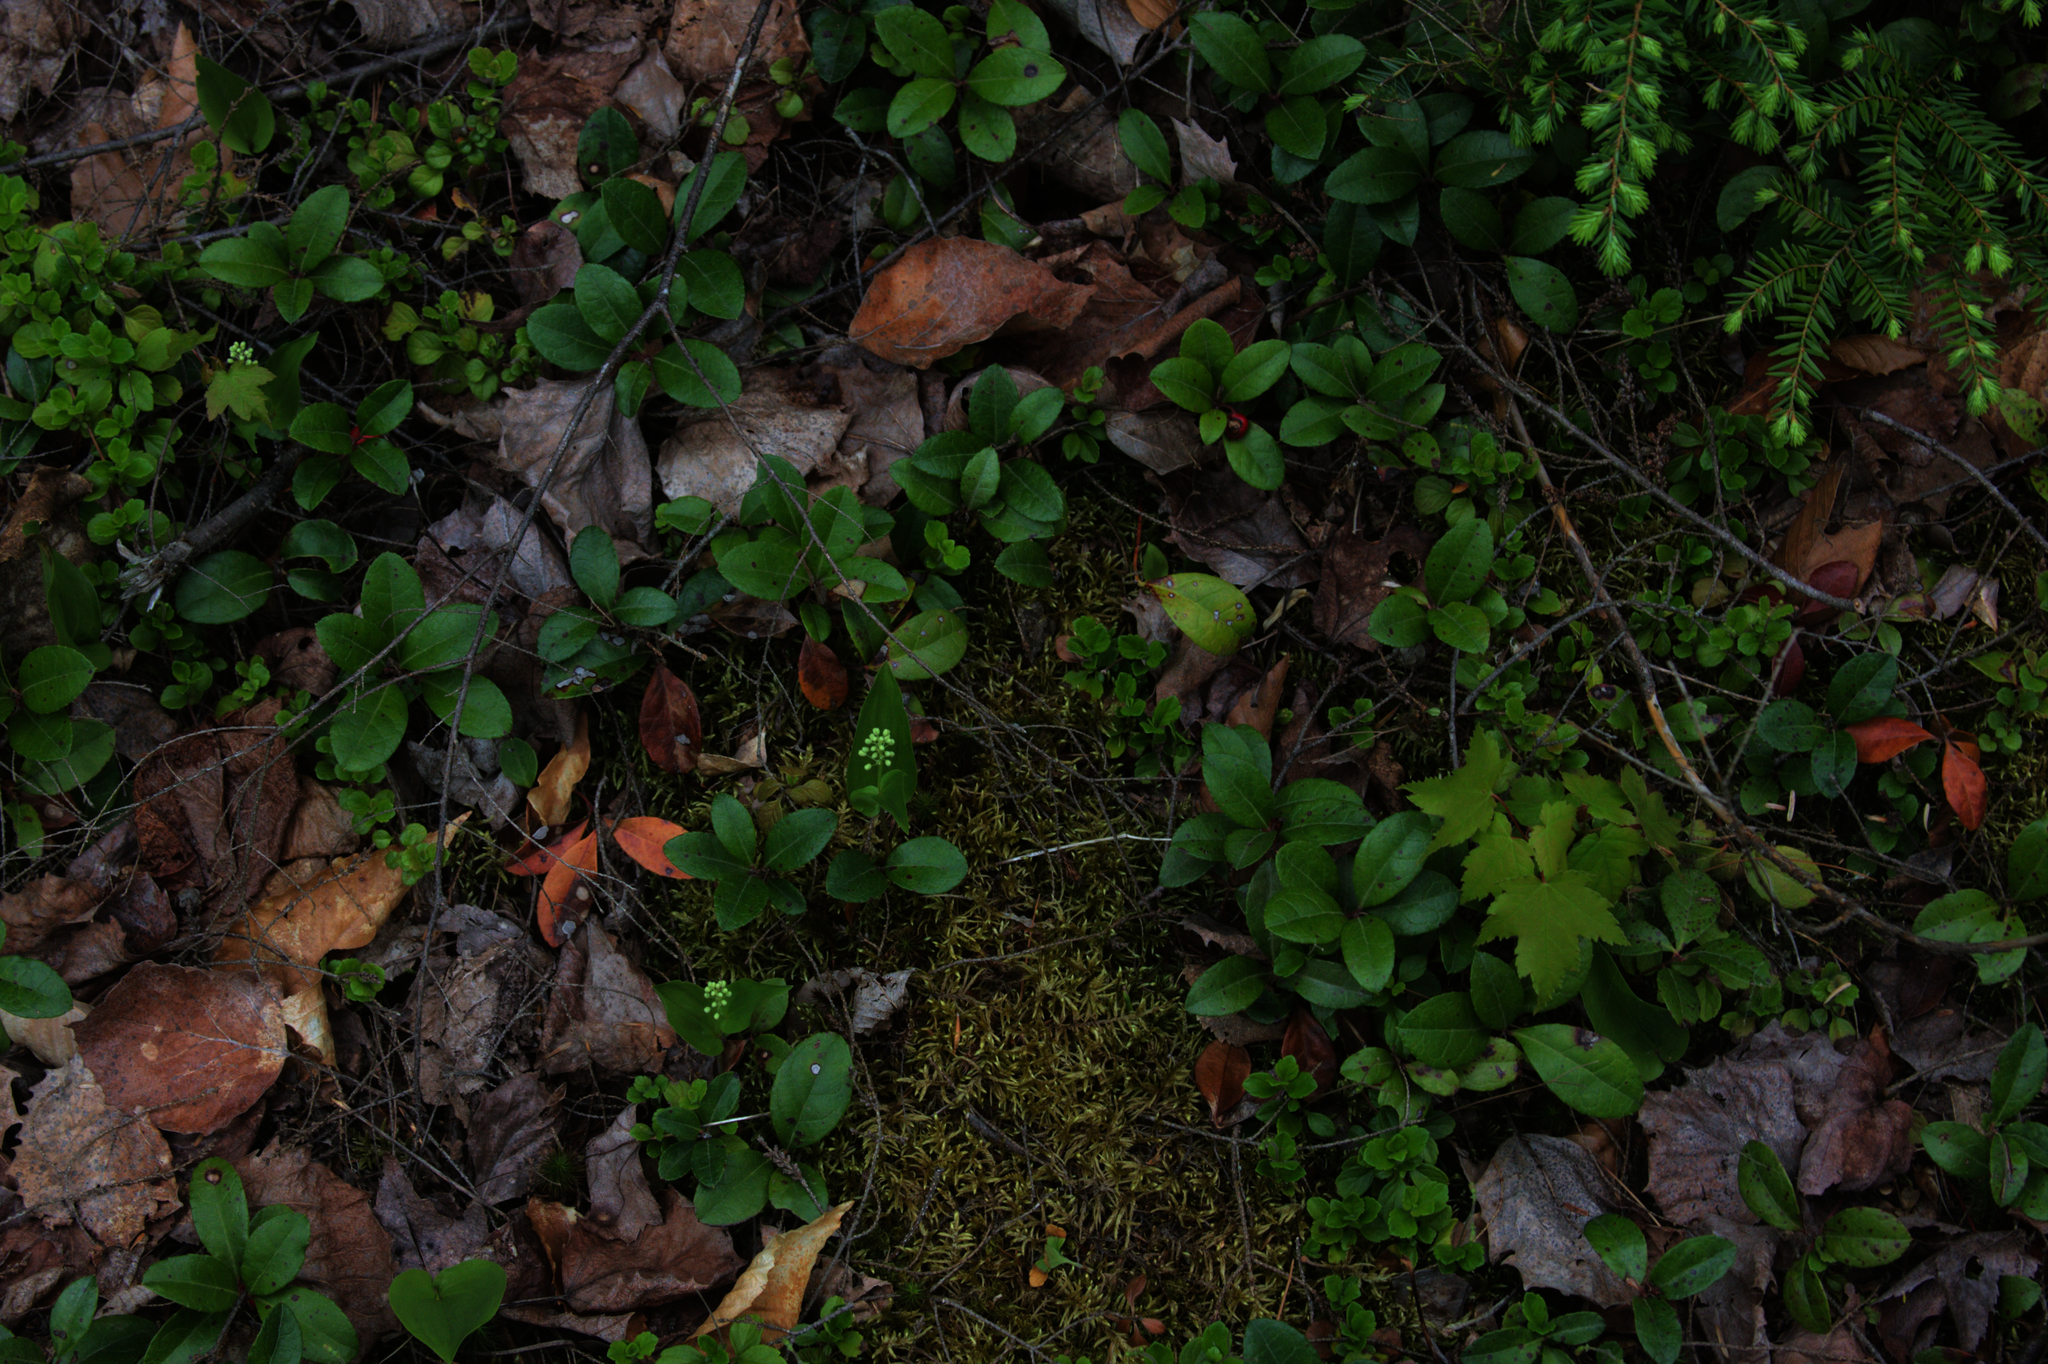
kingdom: Plantae
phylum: Tracheophyta
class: Pinopsida
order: Pinales
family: Pinaceae
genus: Tsuga
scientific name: Tsuga canadensis
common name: Eastern hemlock
